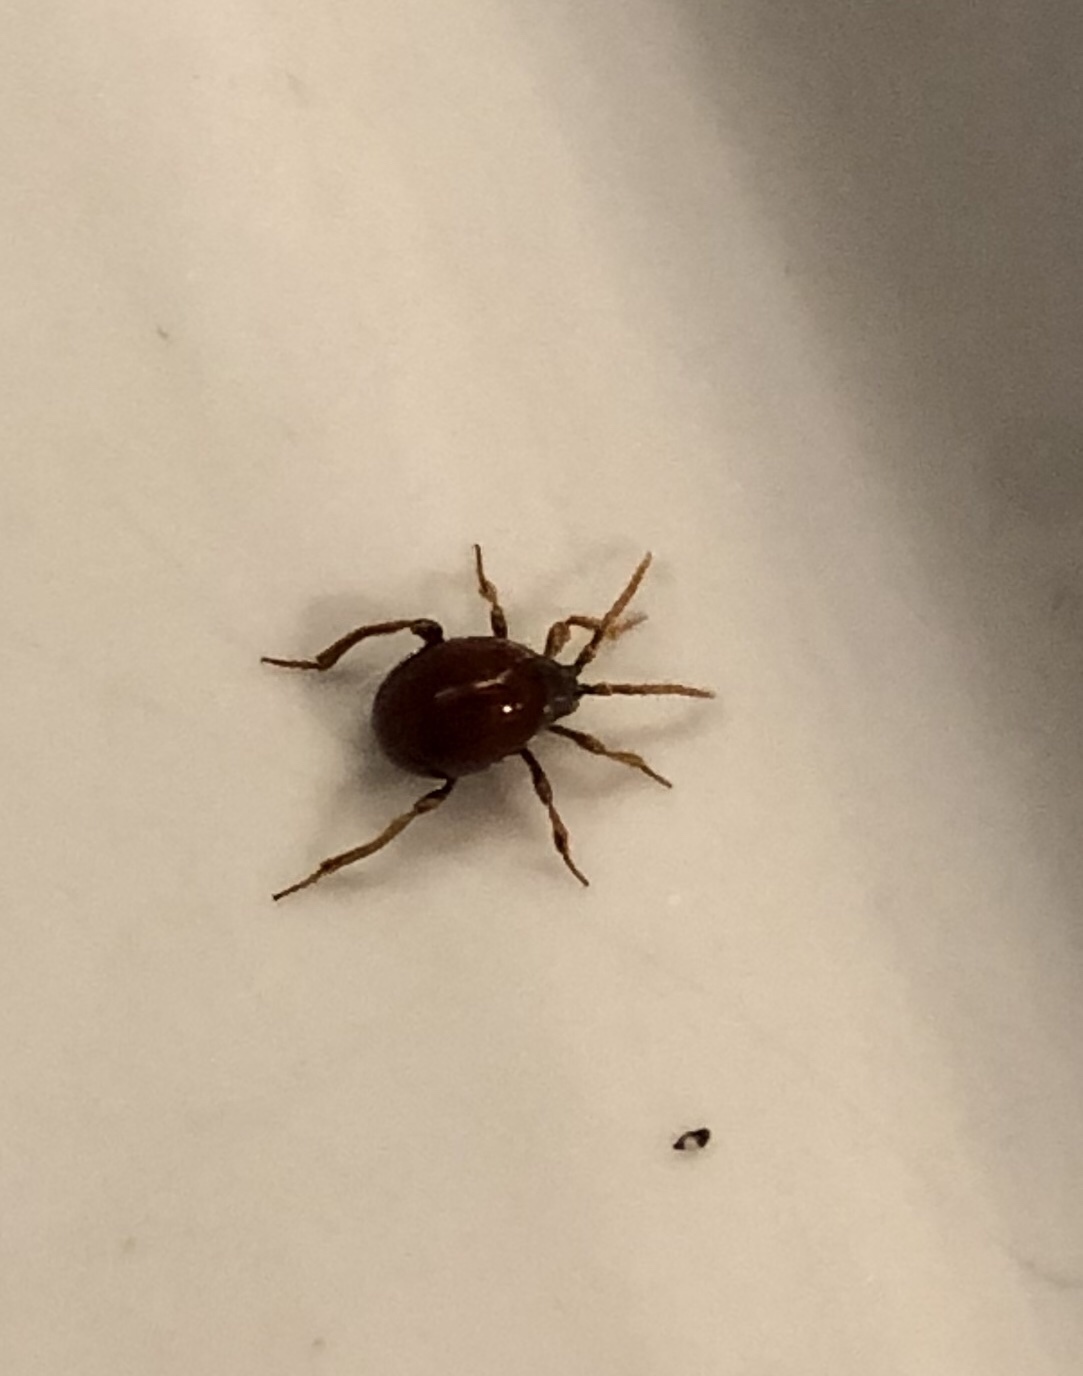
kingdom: Animalia
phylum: Arthropoda
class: Insecta
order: Coleoptera
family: Ptinidae
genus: Gibbium
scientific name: Gibbium psylloides
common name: Spider beetle
